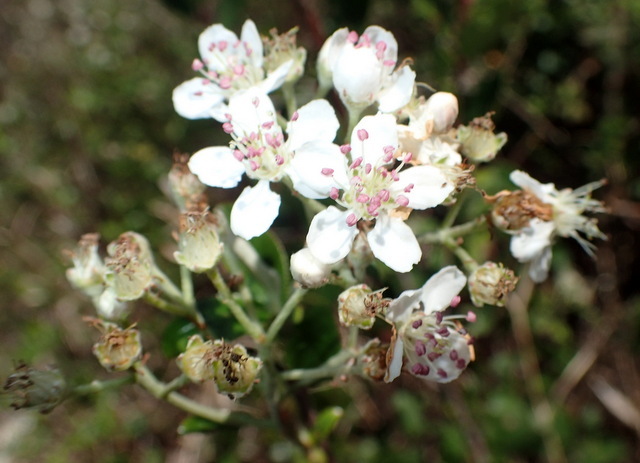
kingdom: Plantae
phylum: Tracheophyta
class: Magnoliopsida
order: Rosales
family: Rosaceae
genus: Aronia
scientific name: Aronia arbutifolia
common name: Red chokeberry
